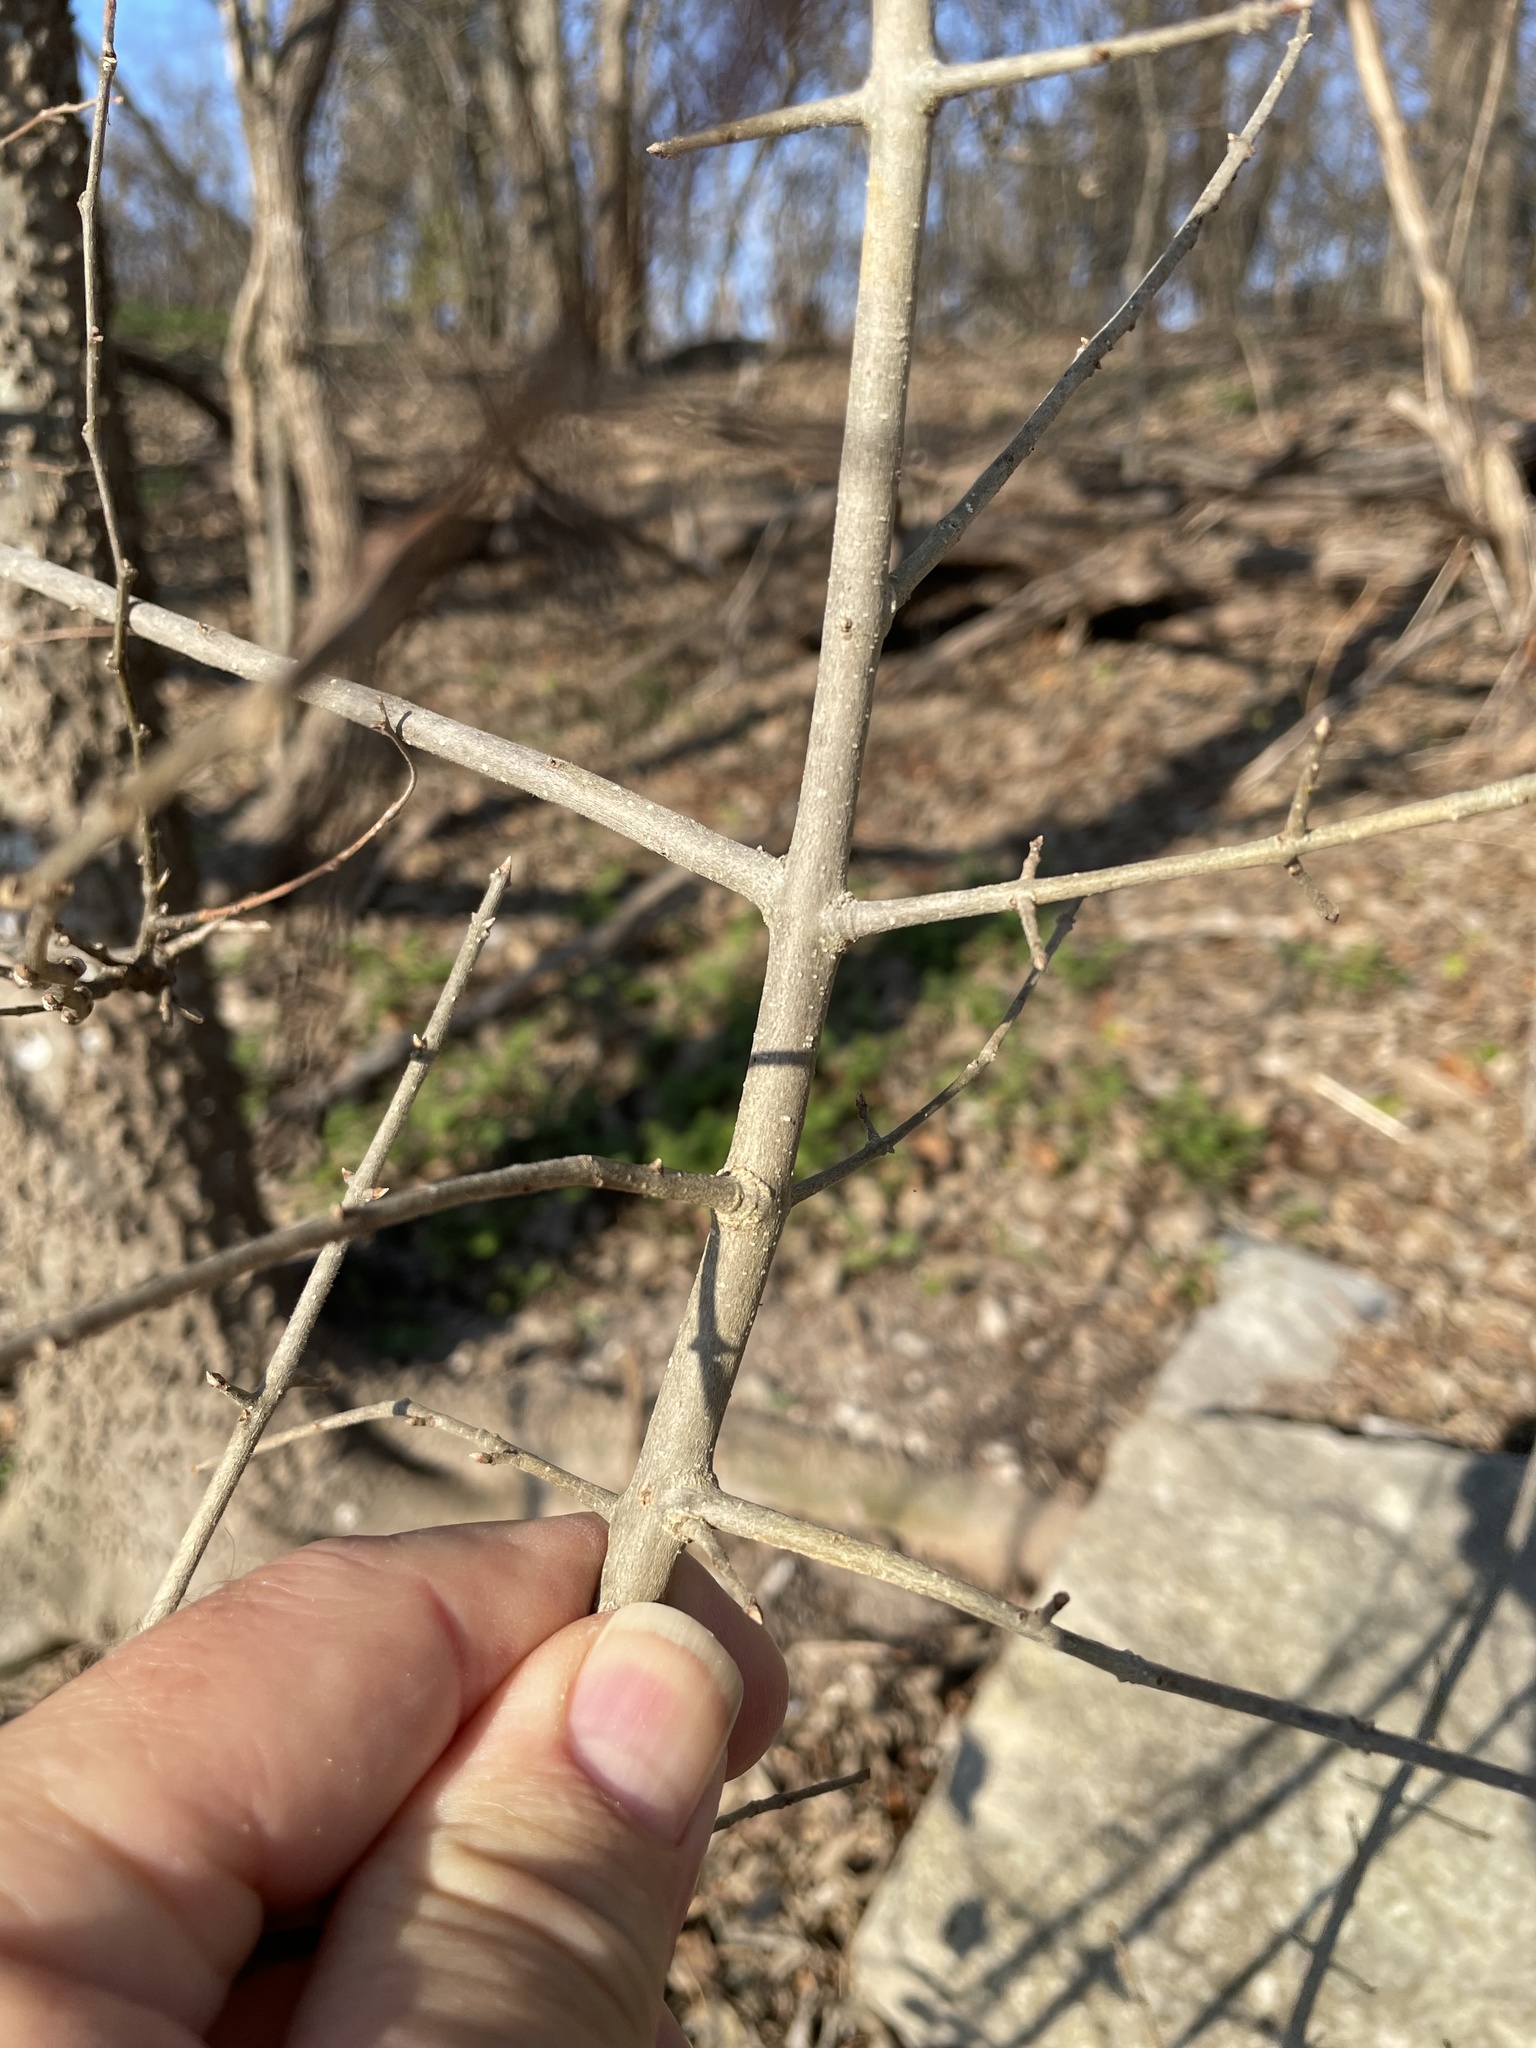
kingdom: Plantae
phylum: Tracheophyta
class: Magnoliopsida
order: Lamiales
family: Oleaceae
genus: Forestiera
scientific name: Forestiera pubescens
